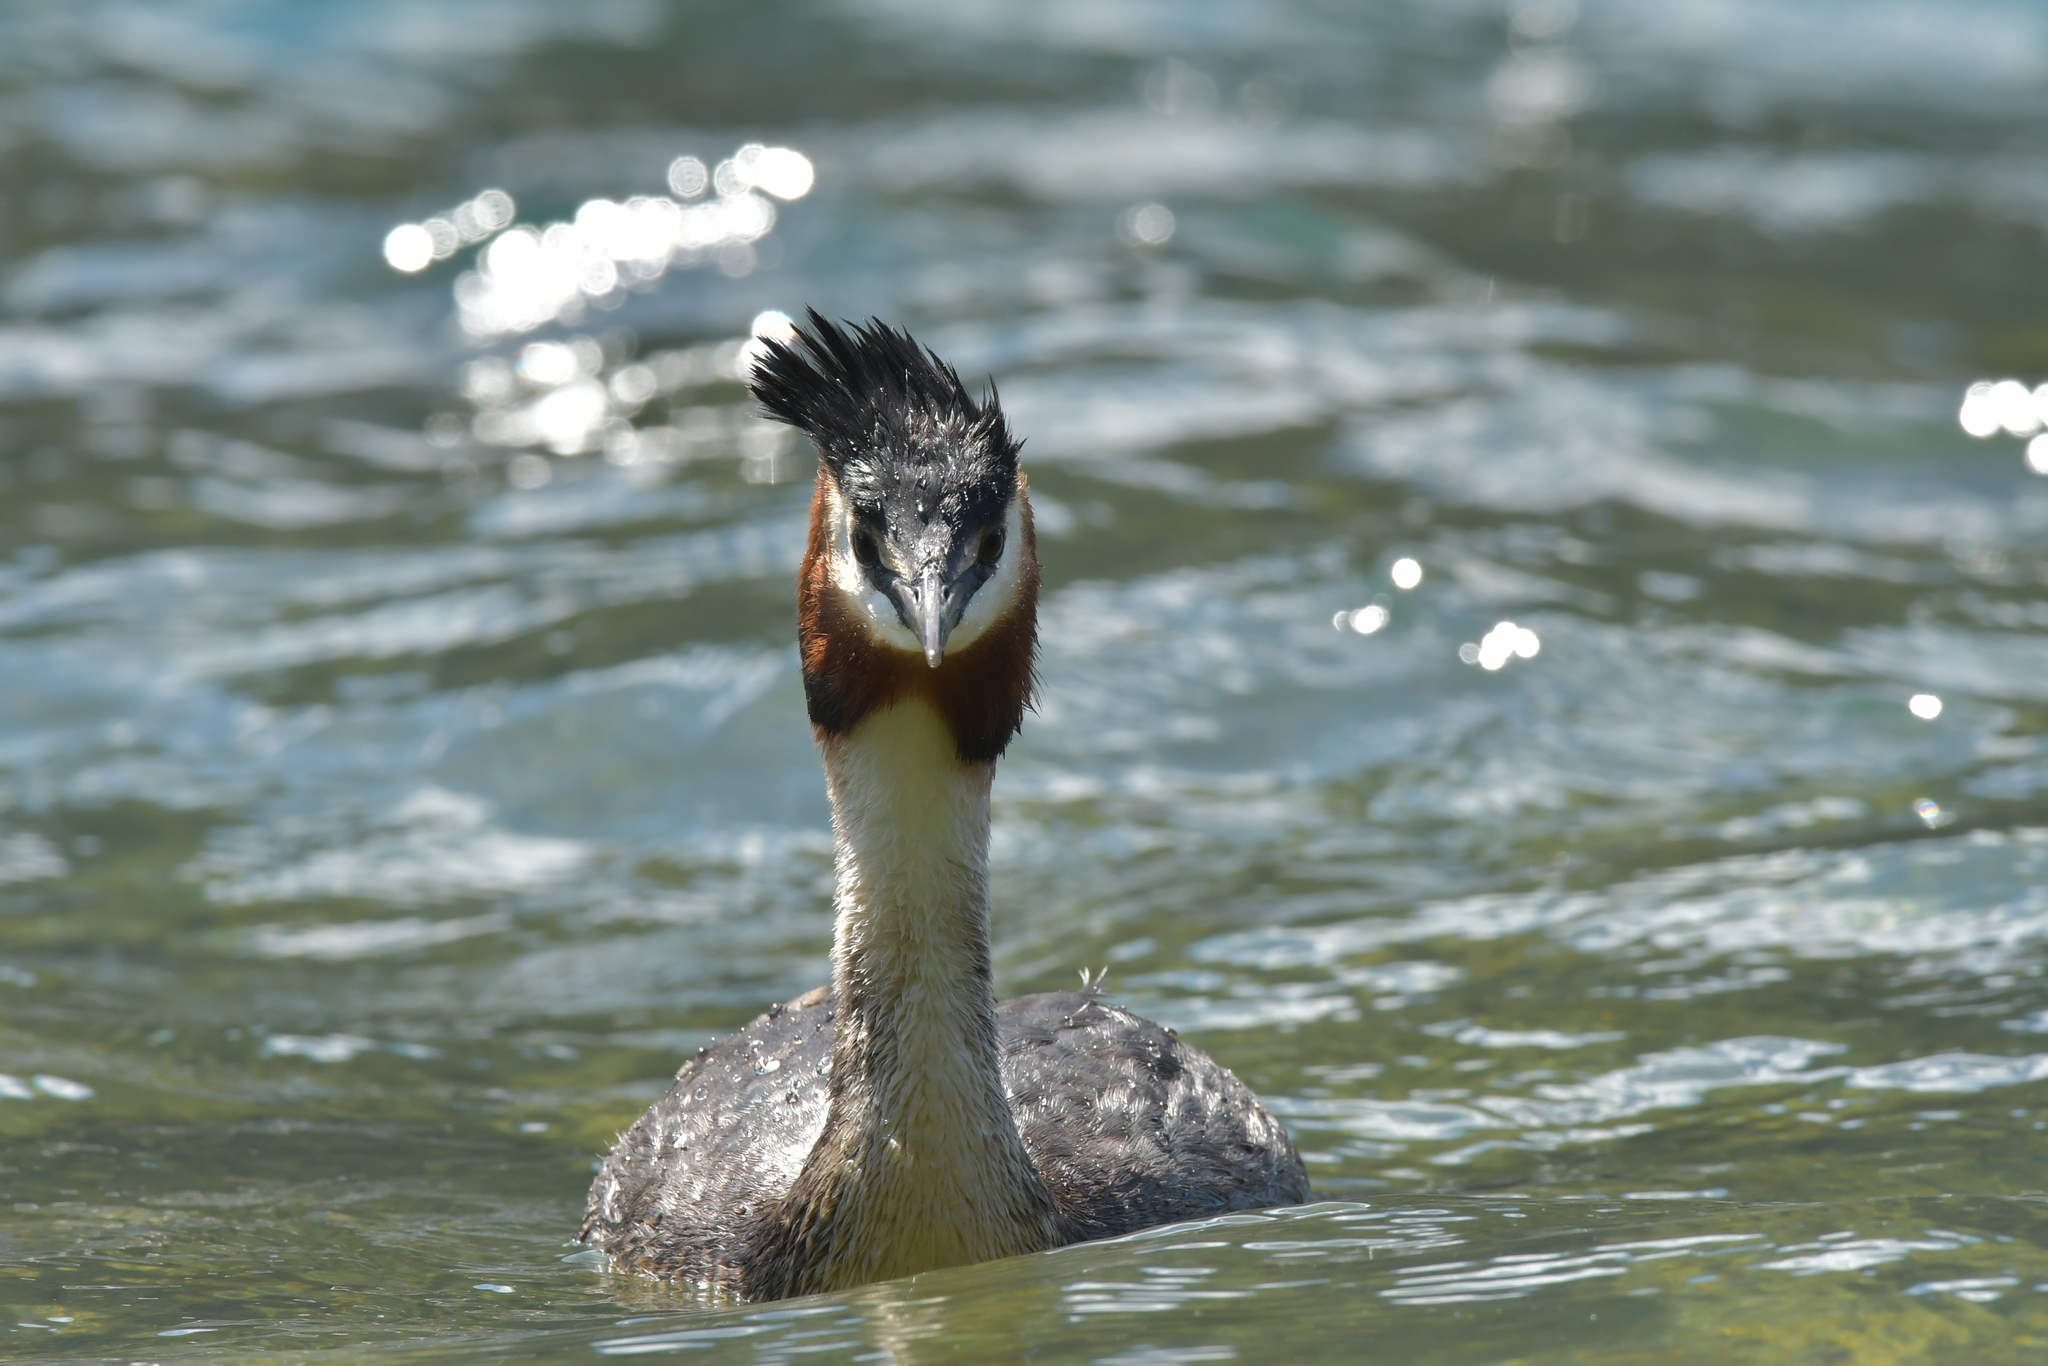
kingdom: Animalia
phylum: Chordata
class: Aves
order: Podicipediformes
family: Podicipedidae
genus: Podiceps
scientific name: Podiceps cristatus
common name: Great crested grebe
